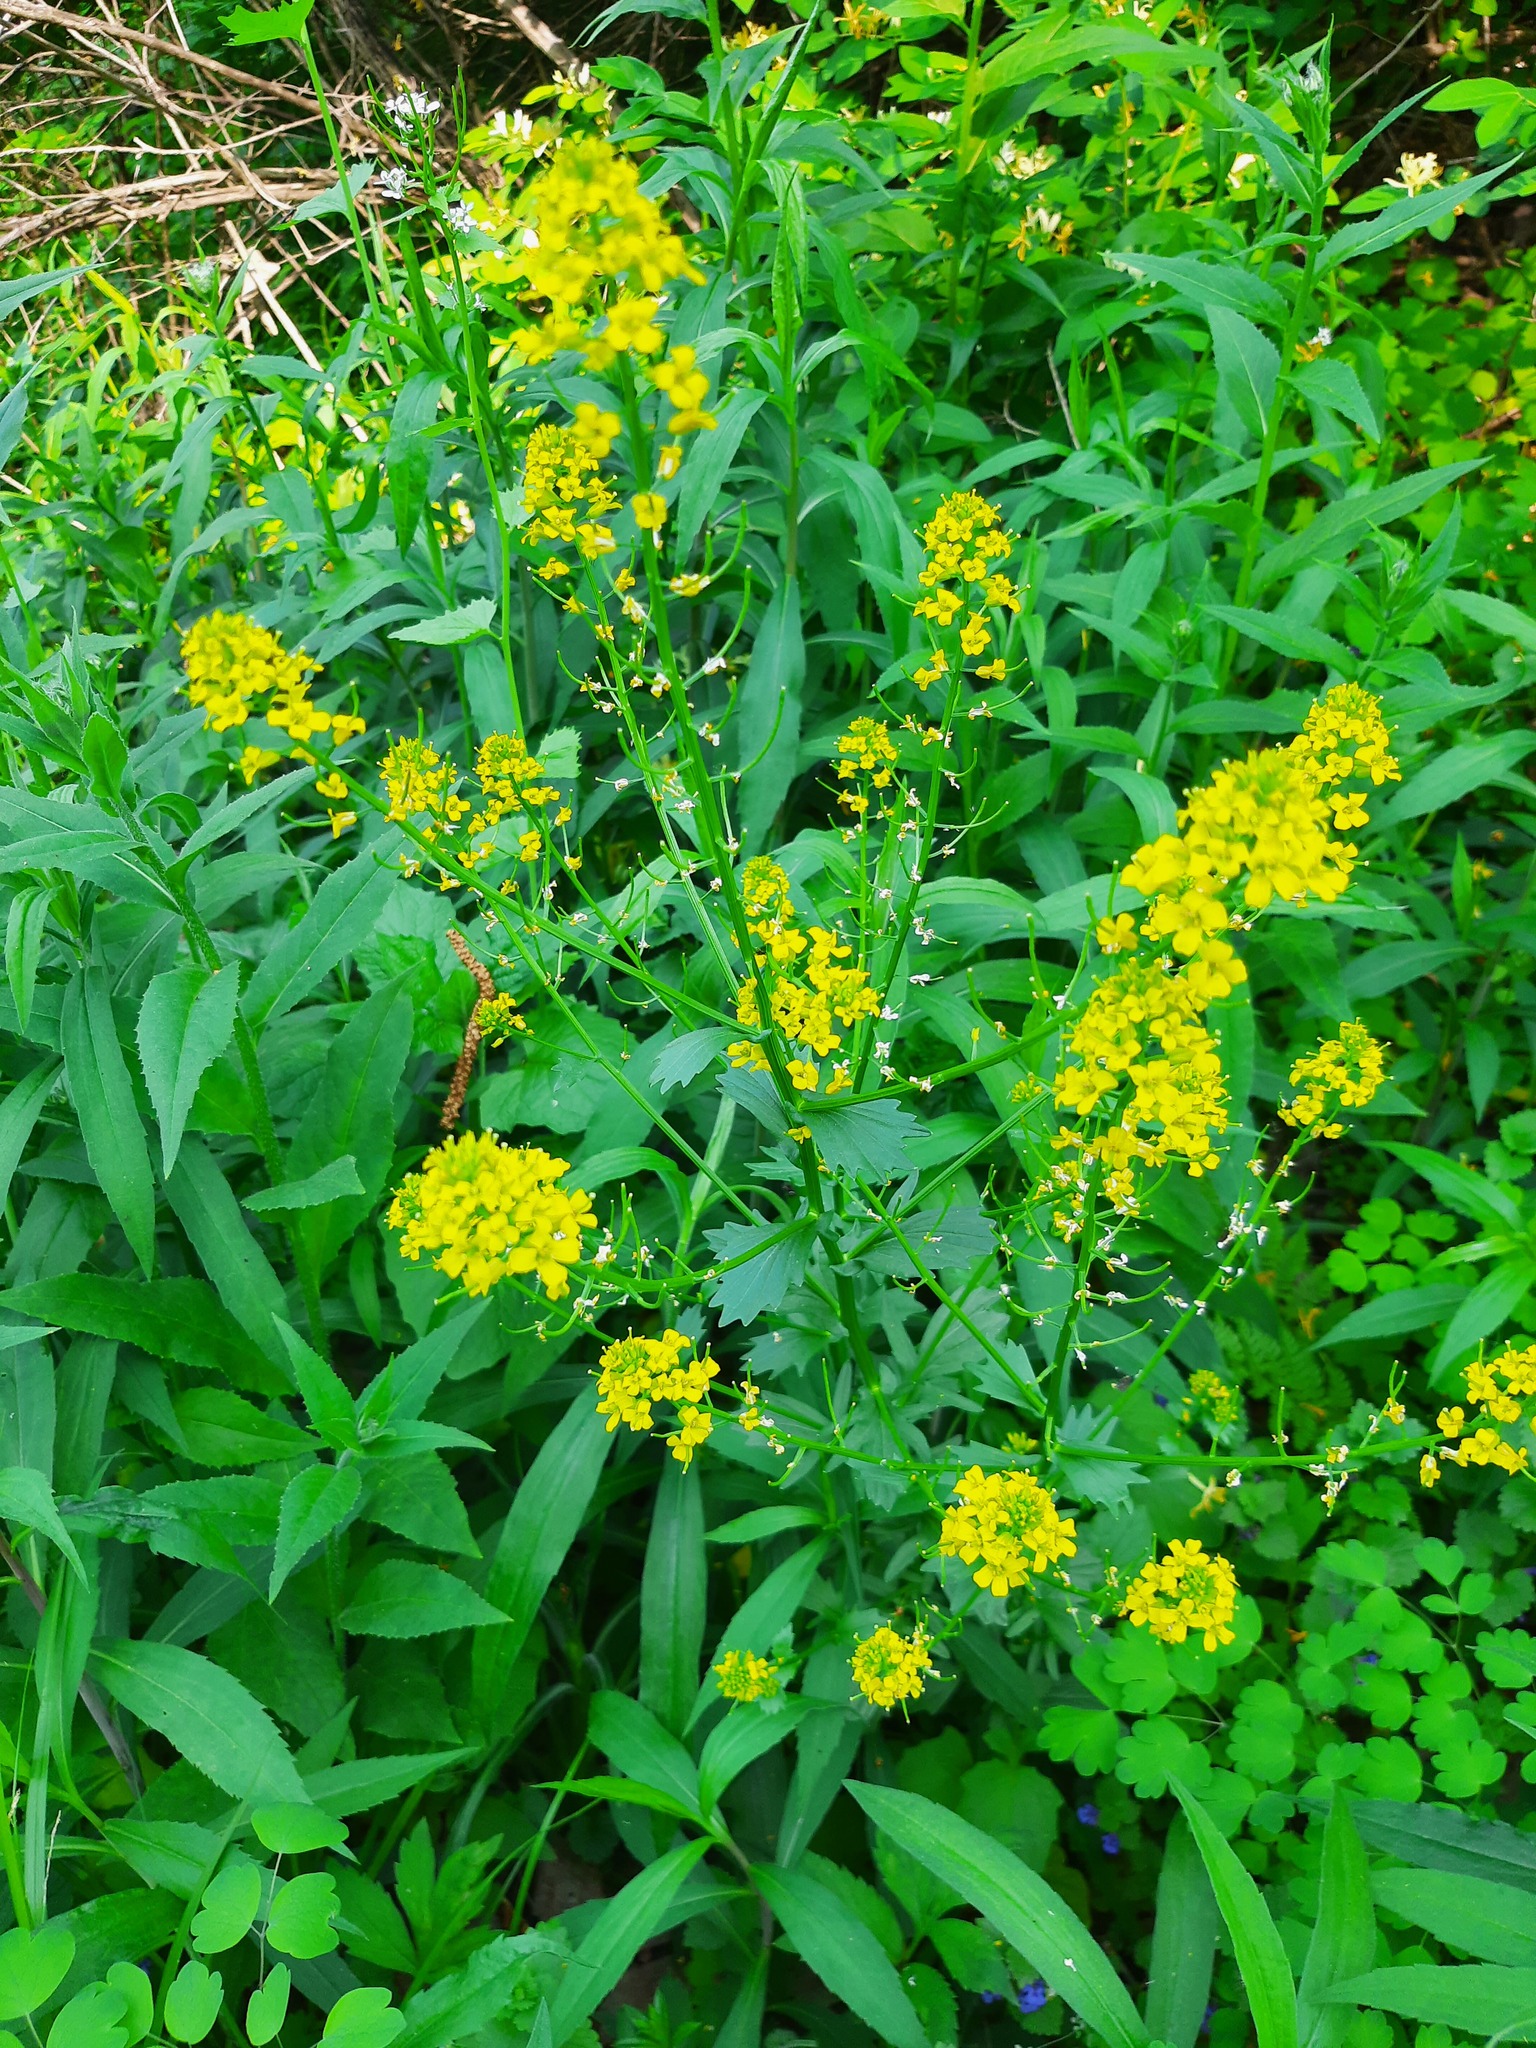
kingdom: Plantae
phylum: Tracheophyta
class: Magnoliopsida
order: Brassicales
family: Brassicaceae
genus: Barbarea
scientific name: Barbarea vulgaris
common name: Cressy-greens
